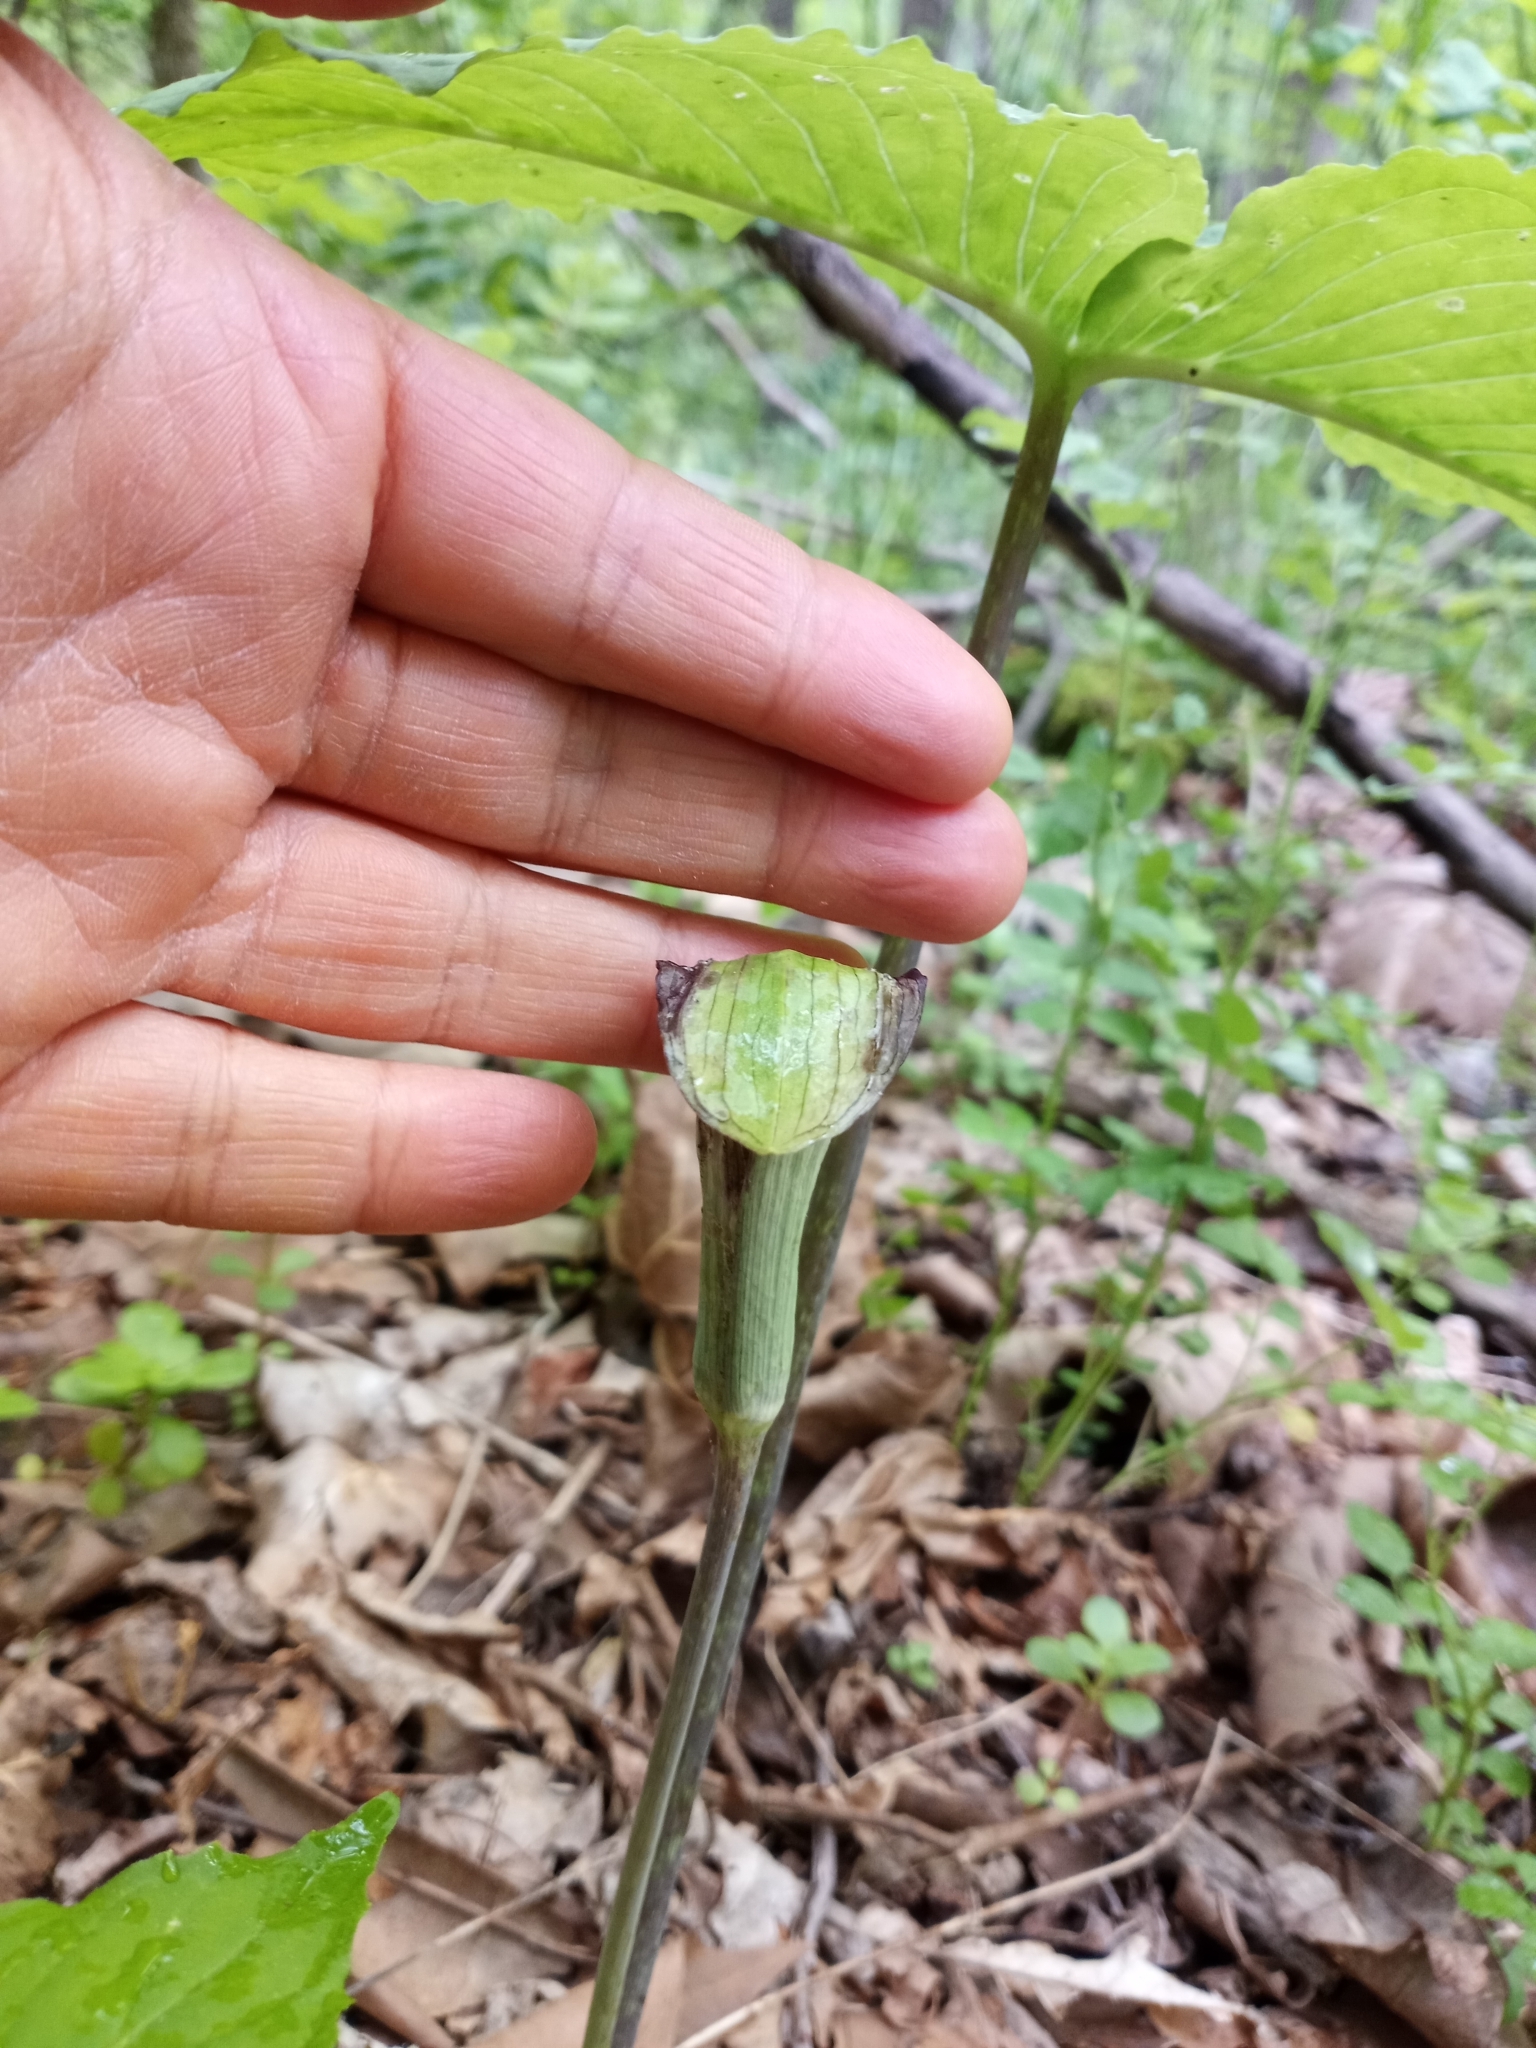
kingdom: Plantae
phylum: Tracheophyta
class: Liliopsida
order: Alismatales
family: Araceae
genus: Arisaema
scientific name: Arisaema triphyllum
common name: Jack-in-the-pulpit
